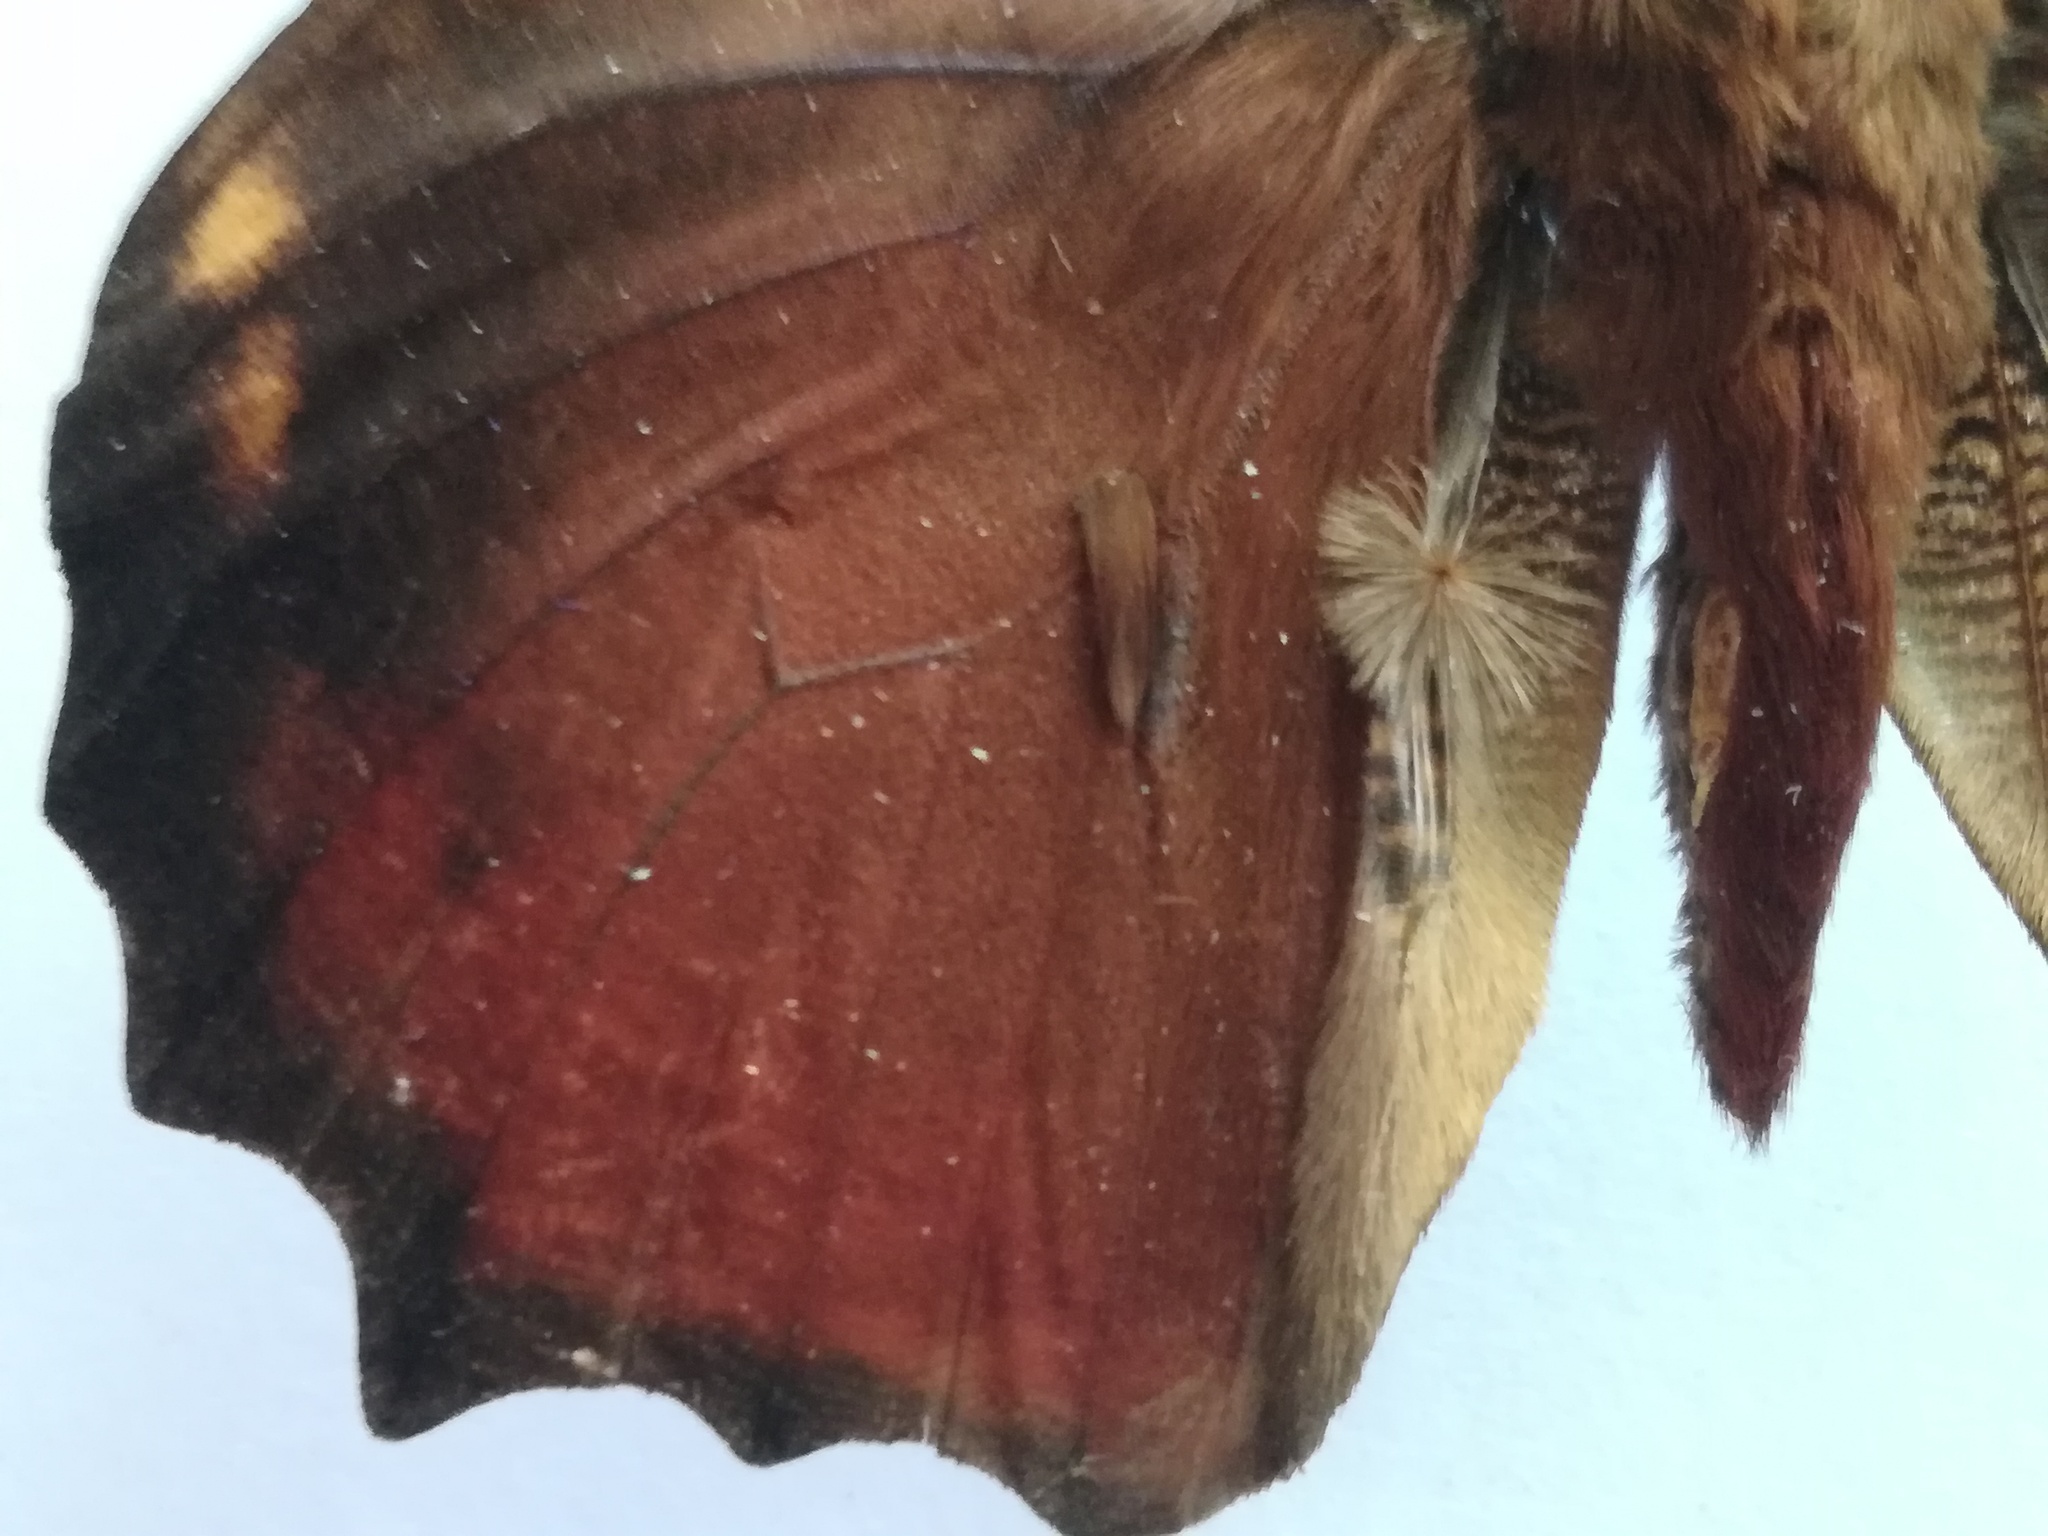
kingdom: Animalia
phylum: Arthropoda
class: Insecta
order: Lepidoptera
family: Nymphalidae
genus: Opsiphanes
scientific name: Opsiphanes quiteria
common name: Scalloped owlet
